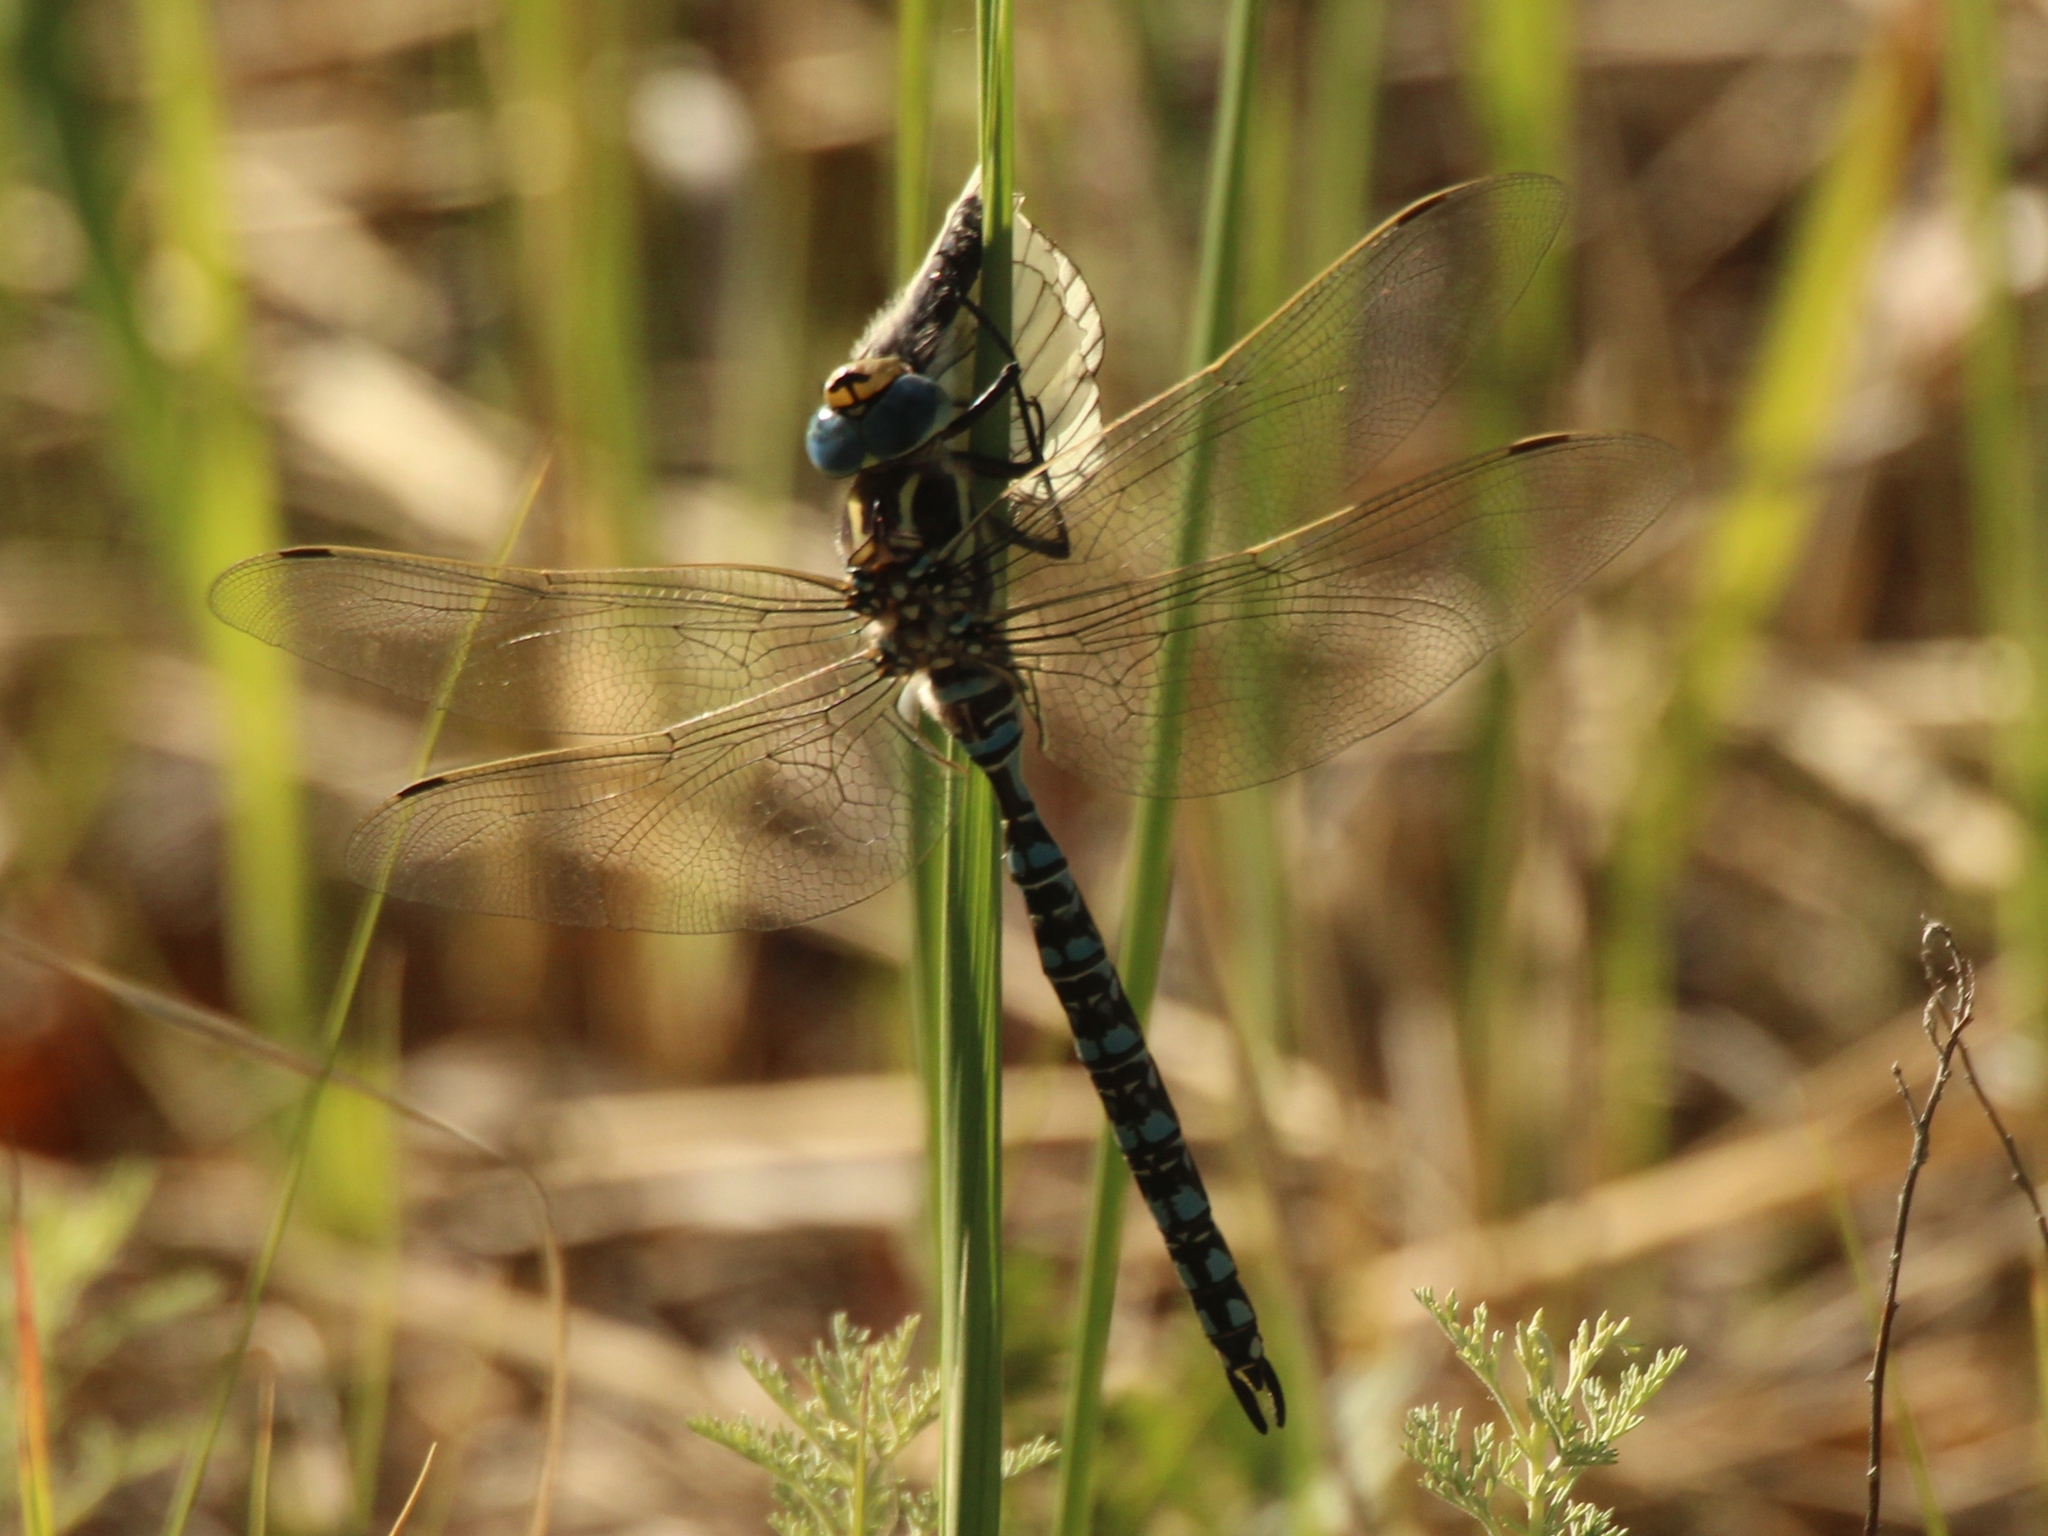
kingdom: Animalia
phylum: Arthropoda
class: Insecta
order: Odonata
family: Aeshnidae
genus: Aeshna
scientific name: Aeshna serrata
